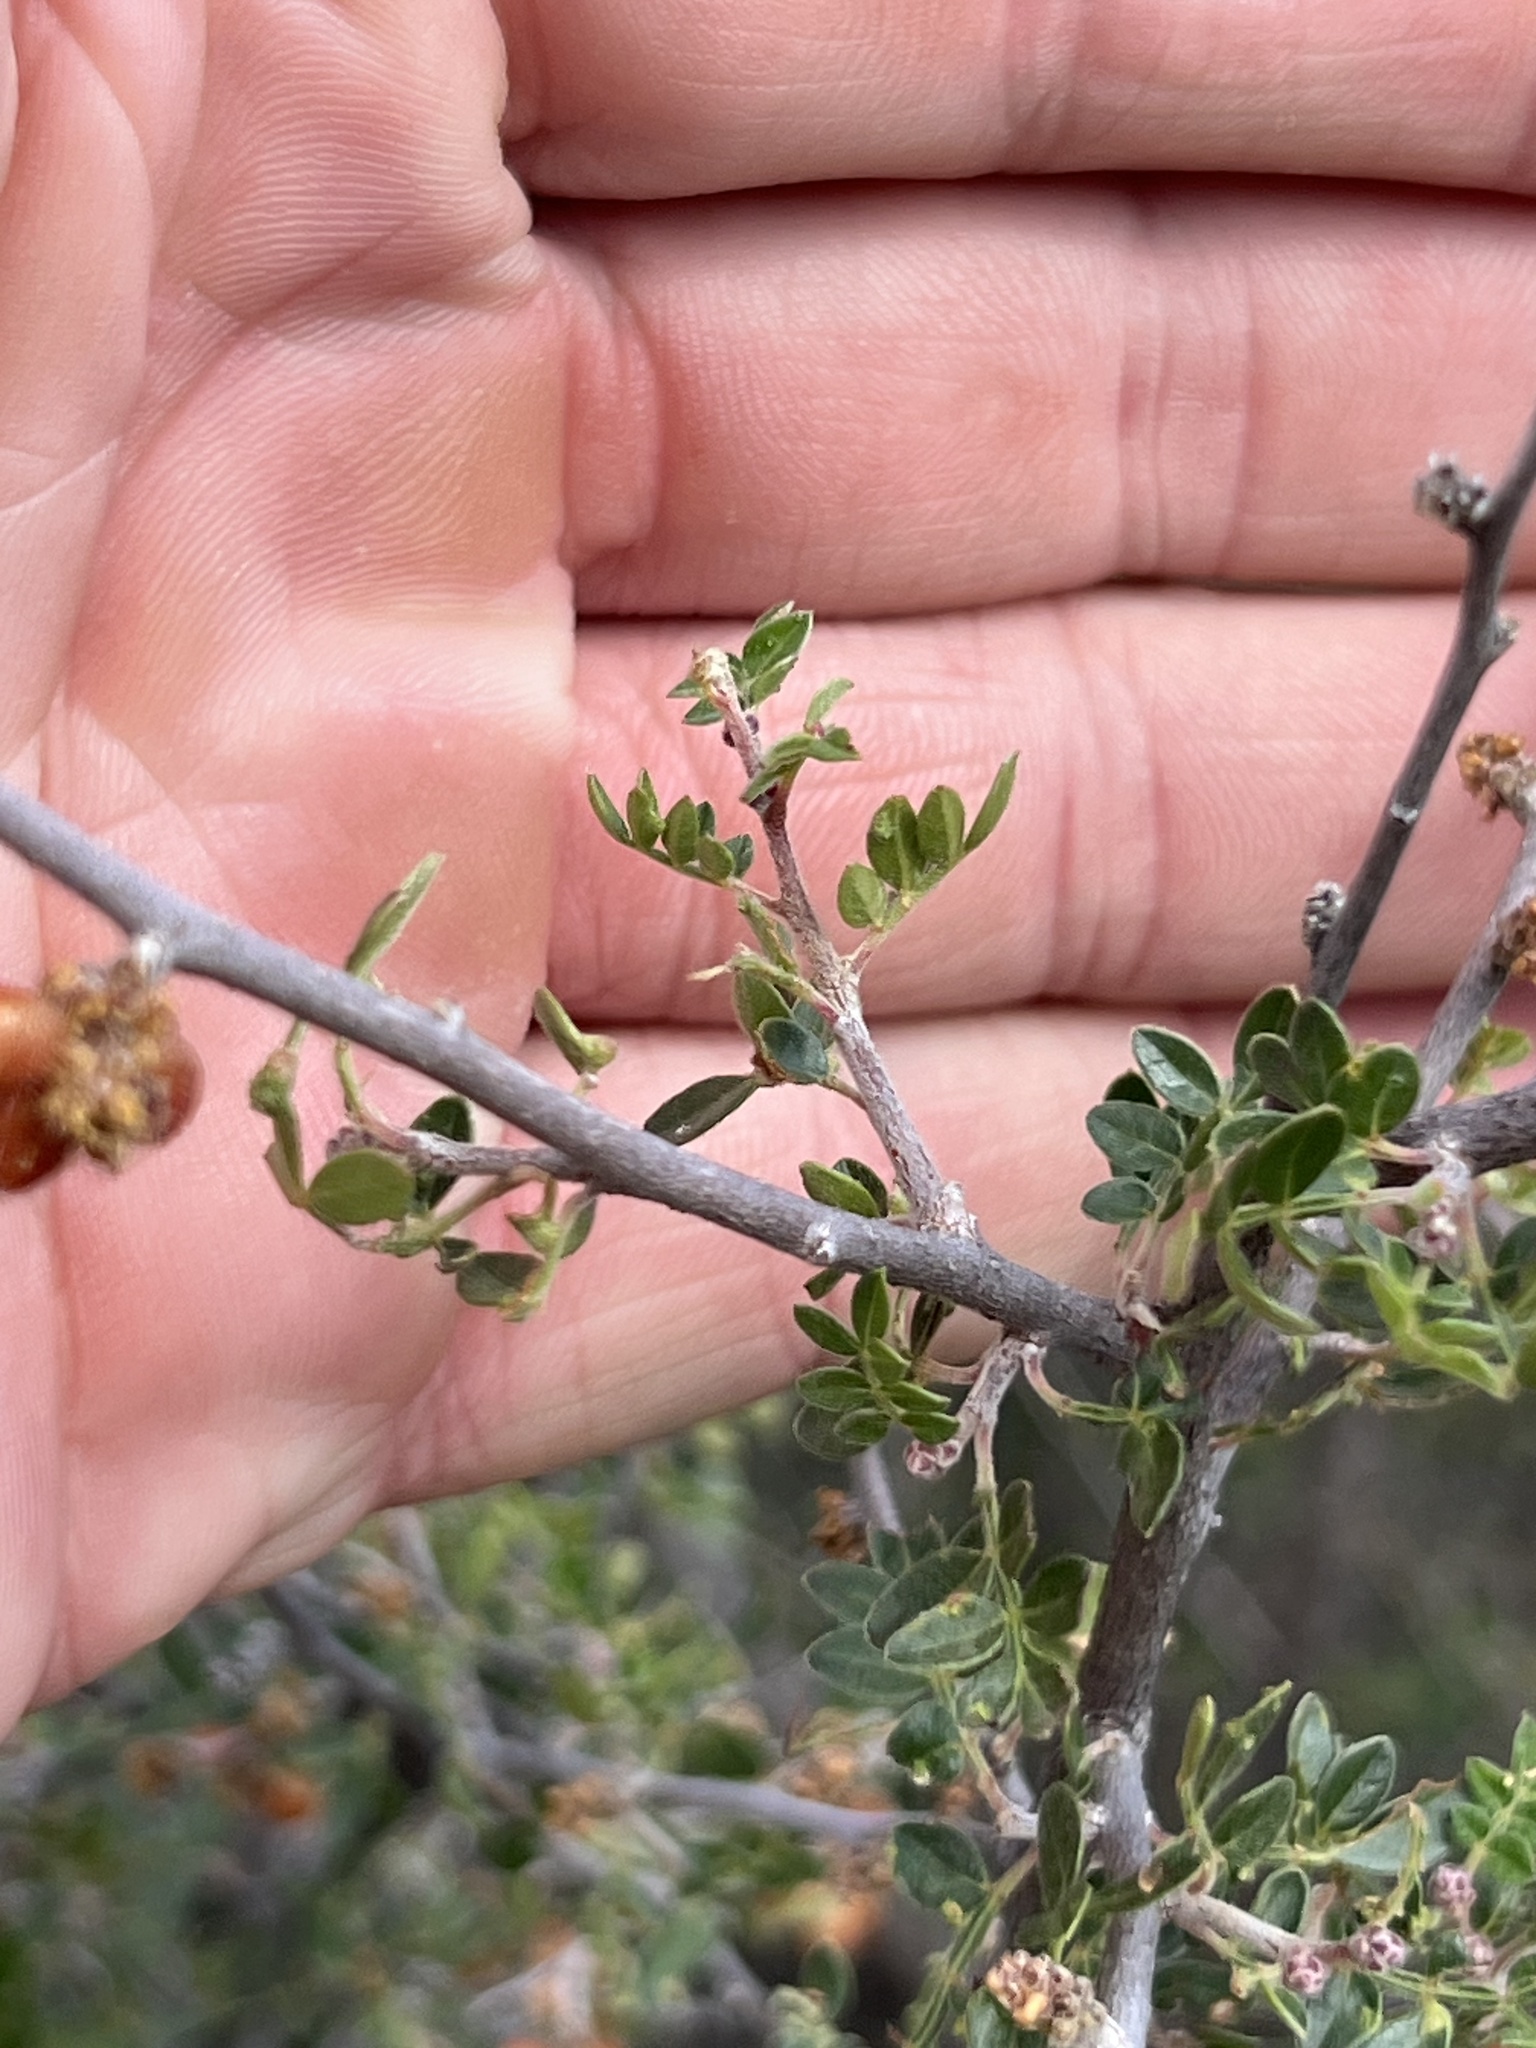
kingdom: Plantae
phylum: Tracheophyta
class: Magnoliopsida
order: Sapindales
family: Anacardiaceae
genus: Rhus
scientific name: Rhus microphylla
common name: Desert sumac
